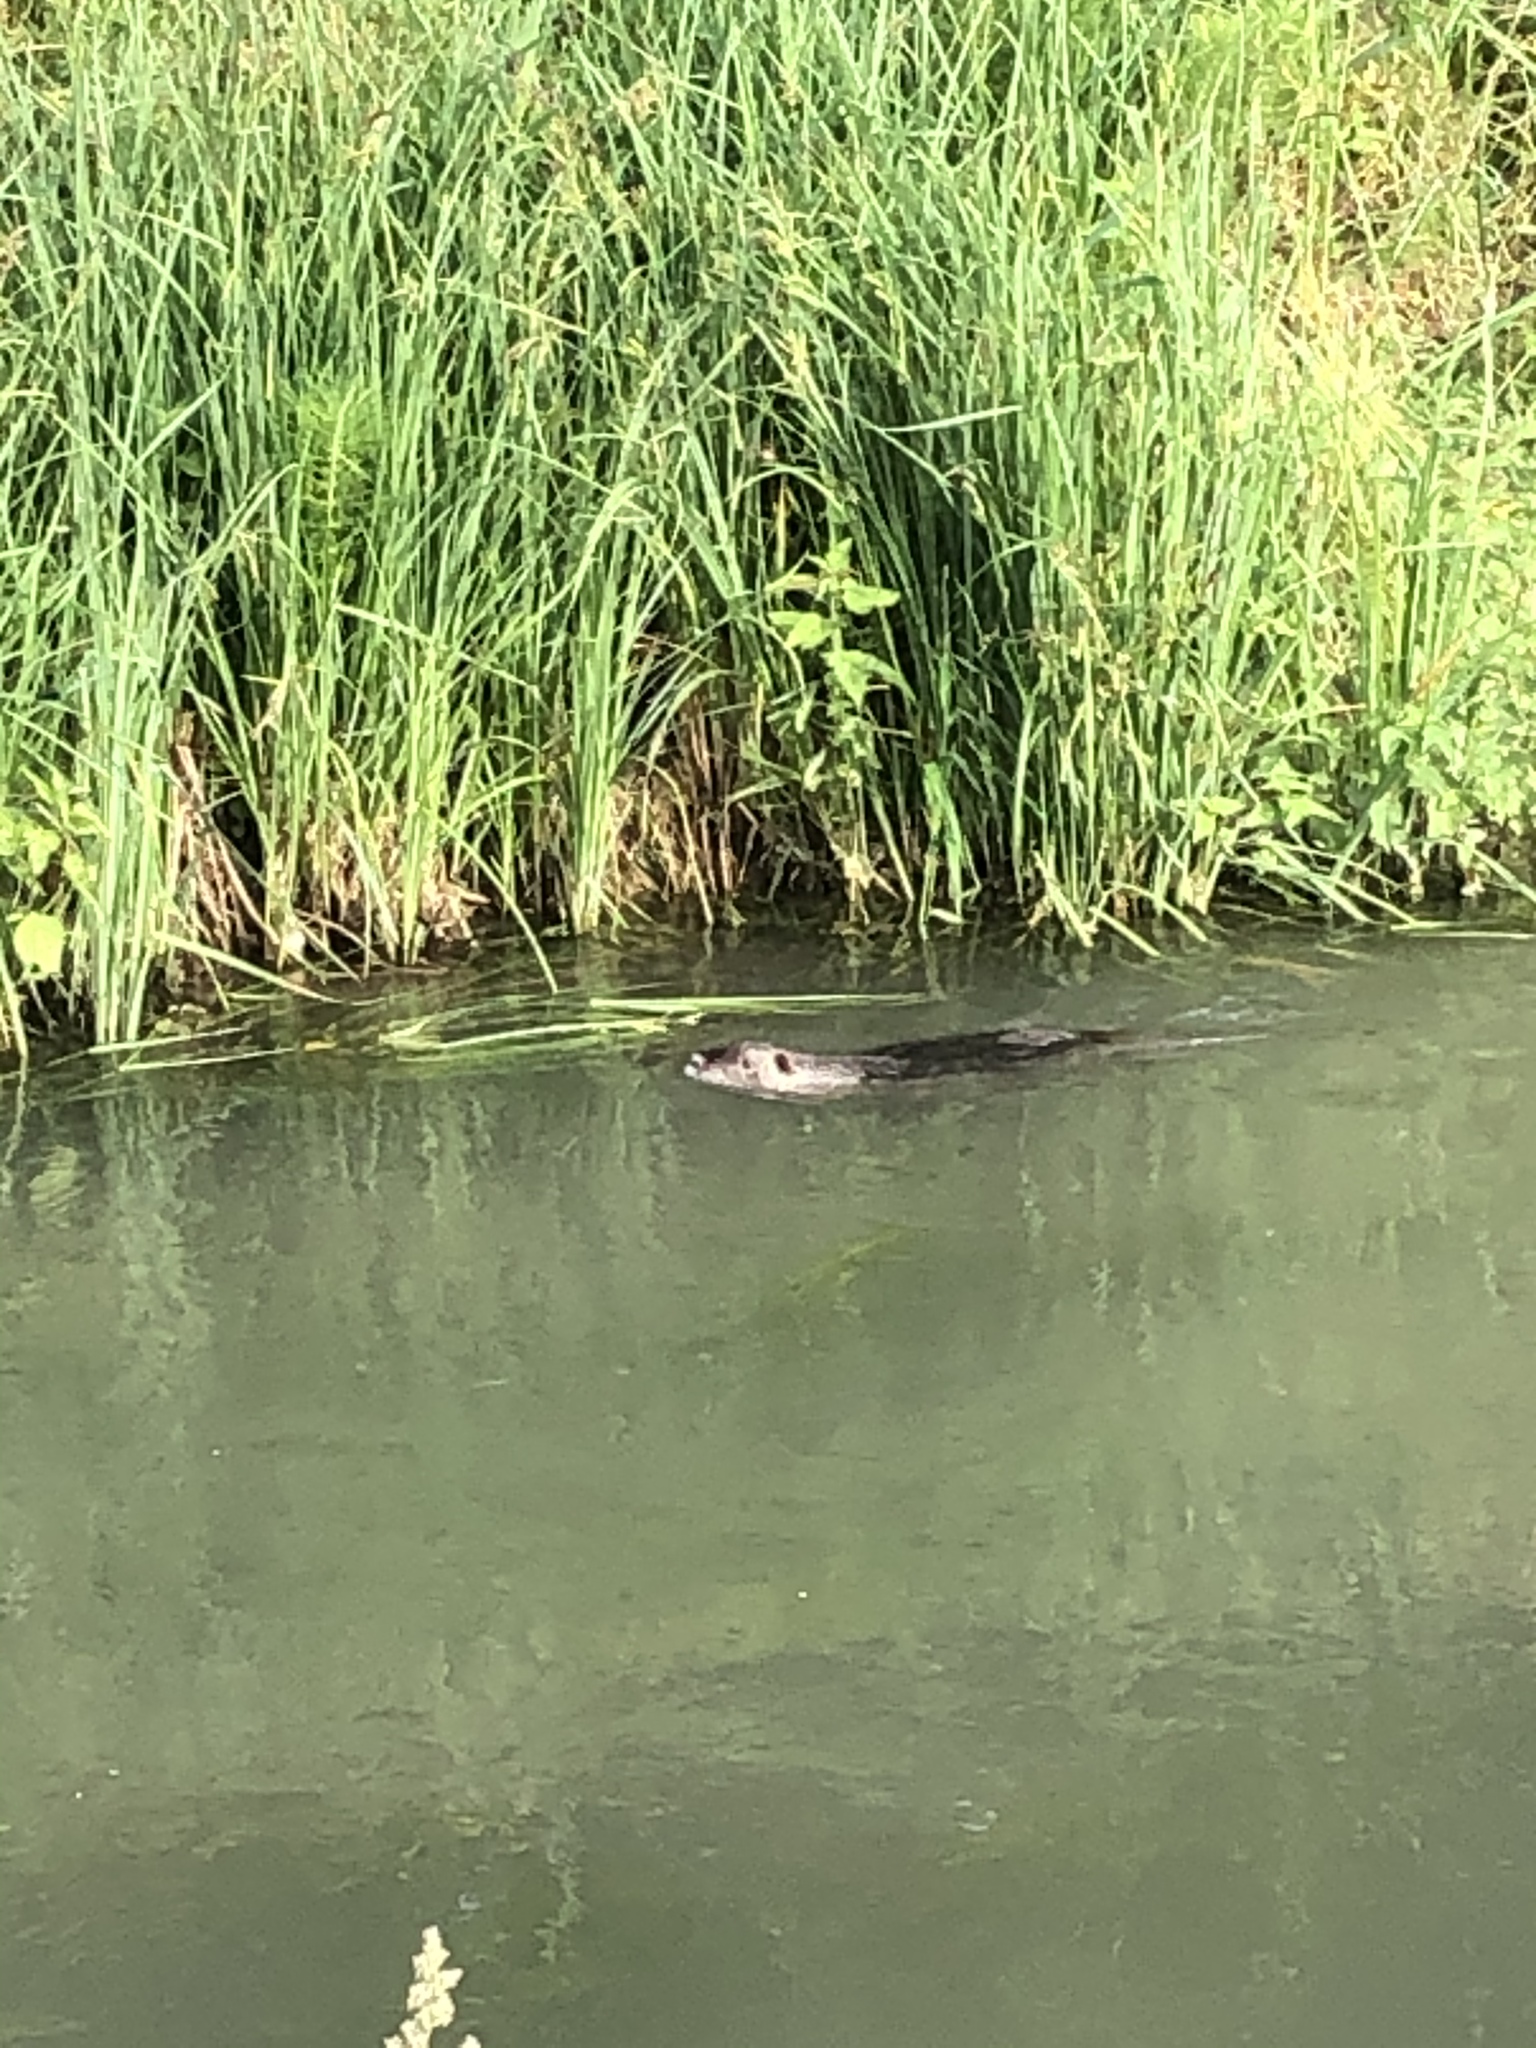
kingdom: Animalia
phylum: Chordata
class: Mammalia
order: Rodentia
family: Myocastoridae
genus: Myocastor
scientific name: Myocastor coypus
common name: Coypu
